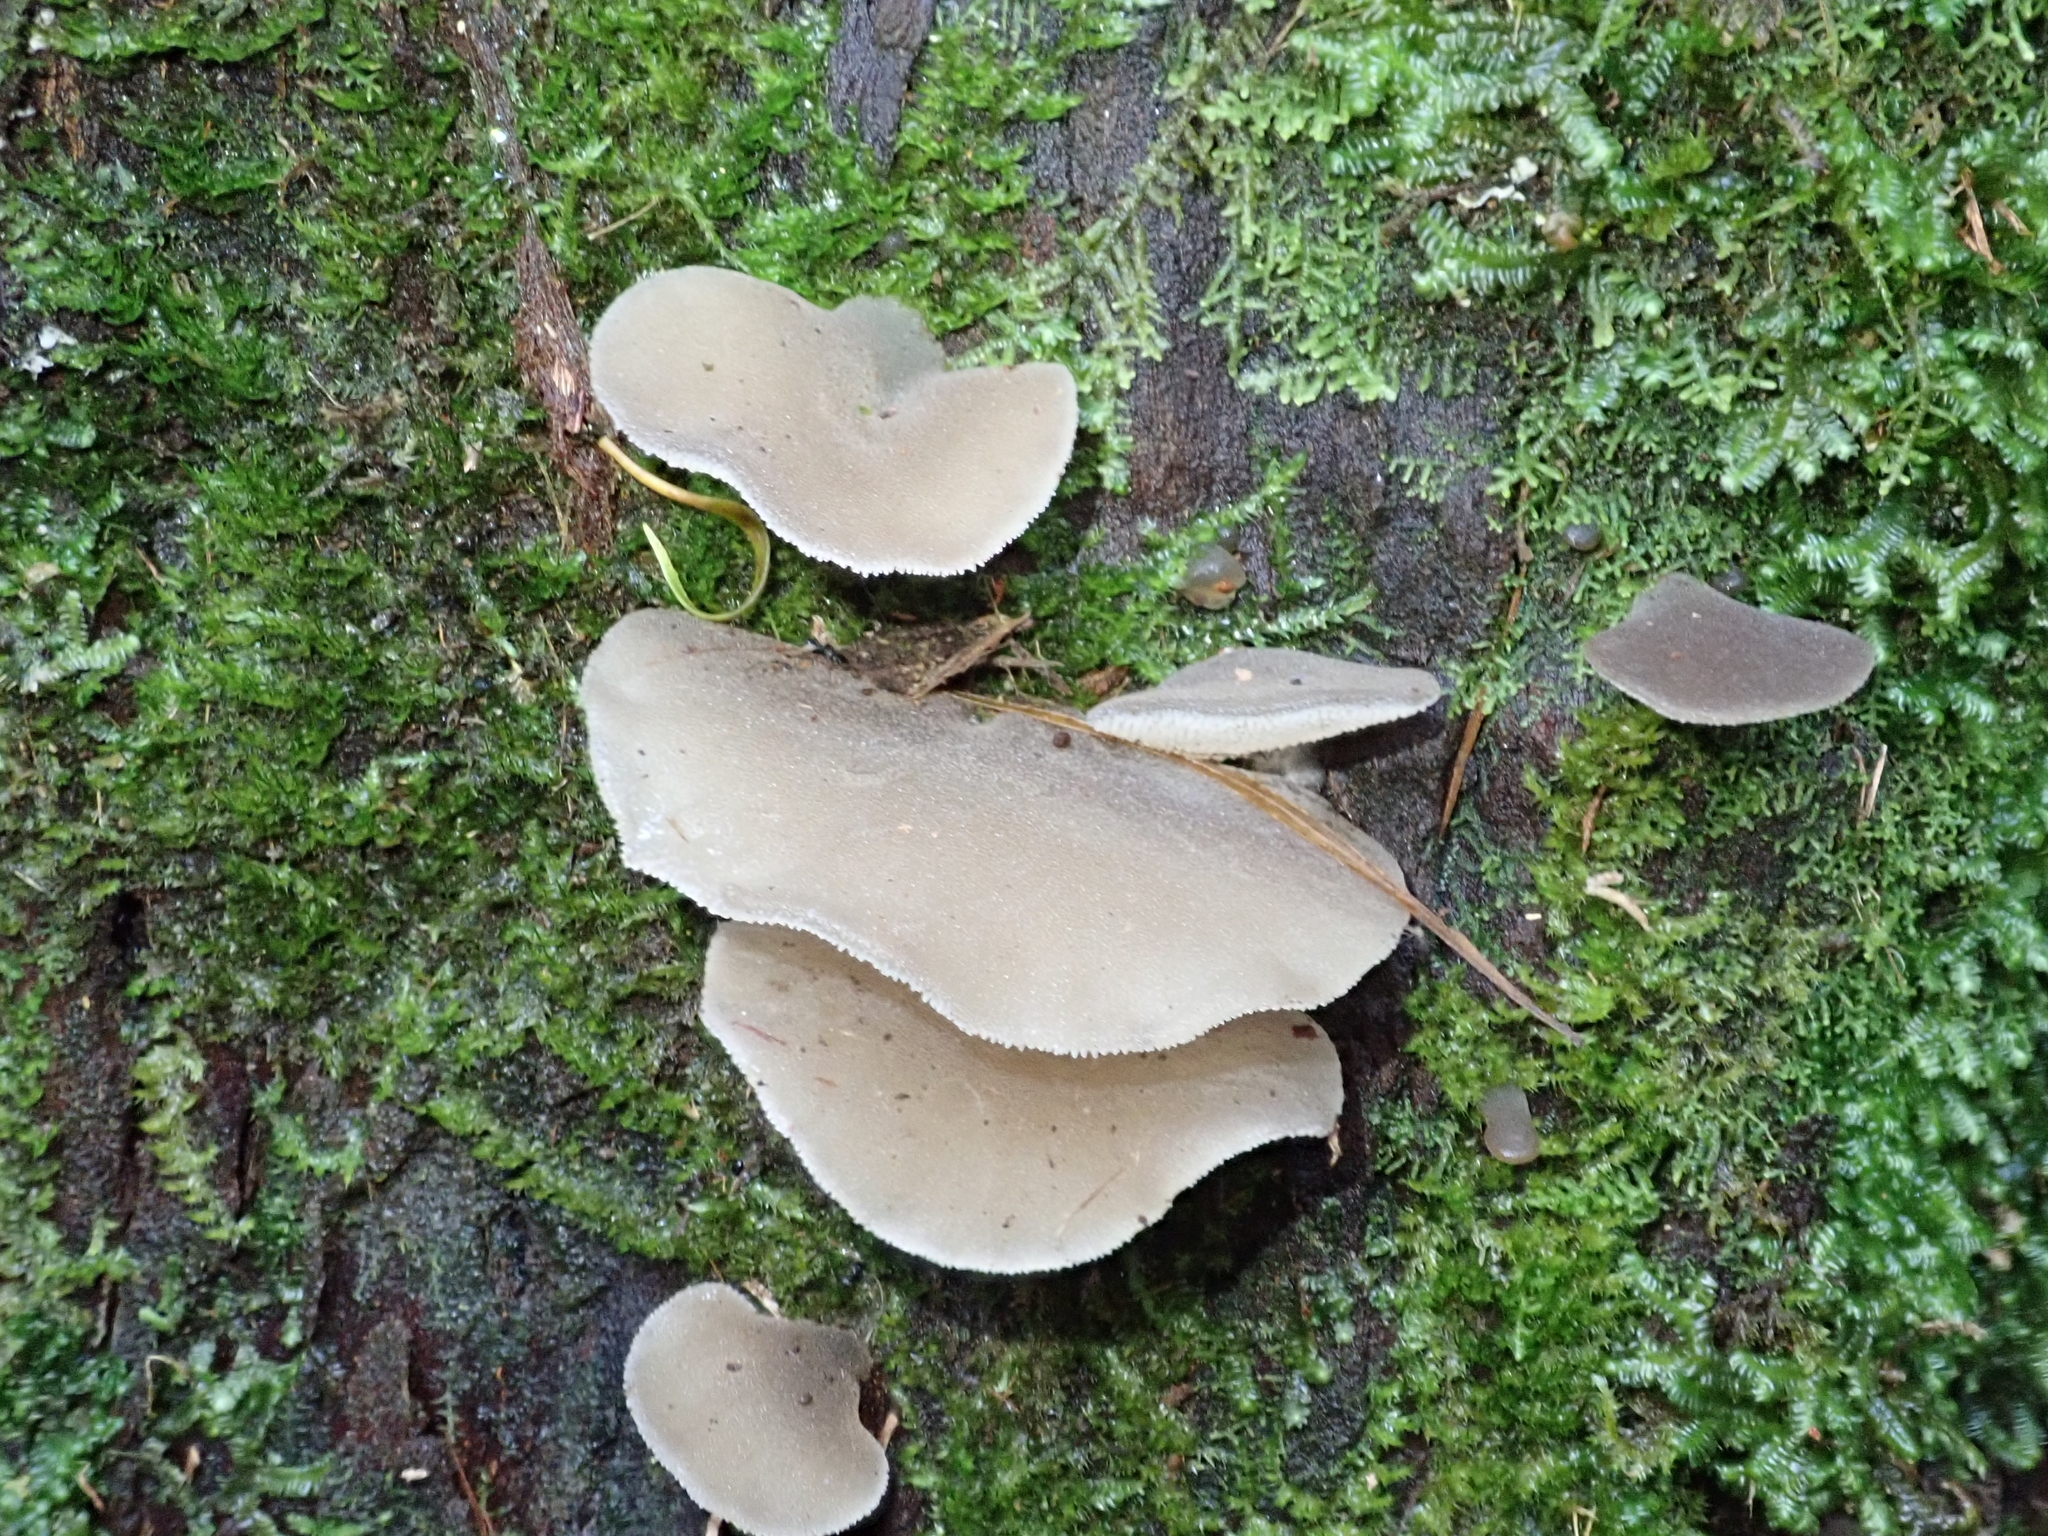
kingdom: Fungi
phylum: Basidiomycota
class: Agaricomycetes
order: Auriculariales
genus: Pseudohydnum
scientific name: Pseudohydnum gelatinosum
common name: Jelly tongue
